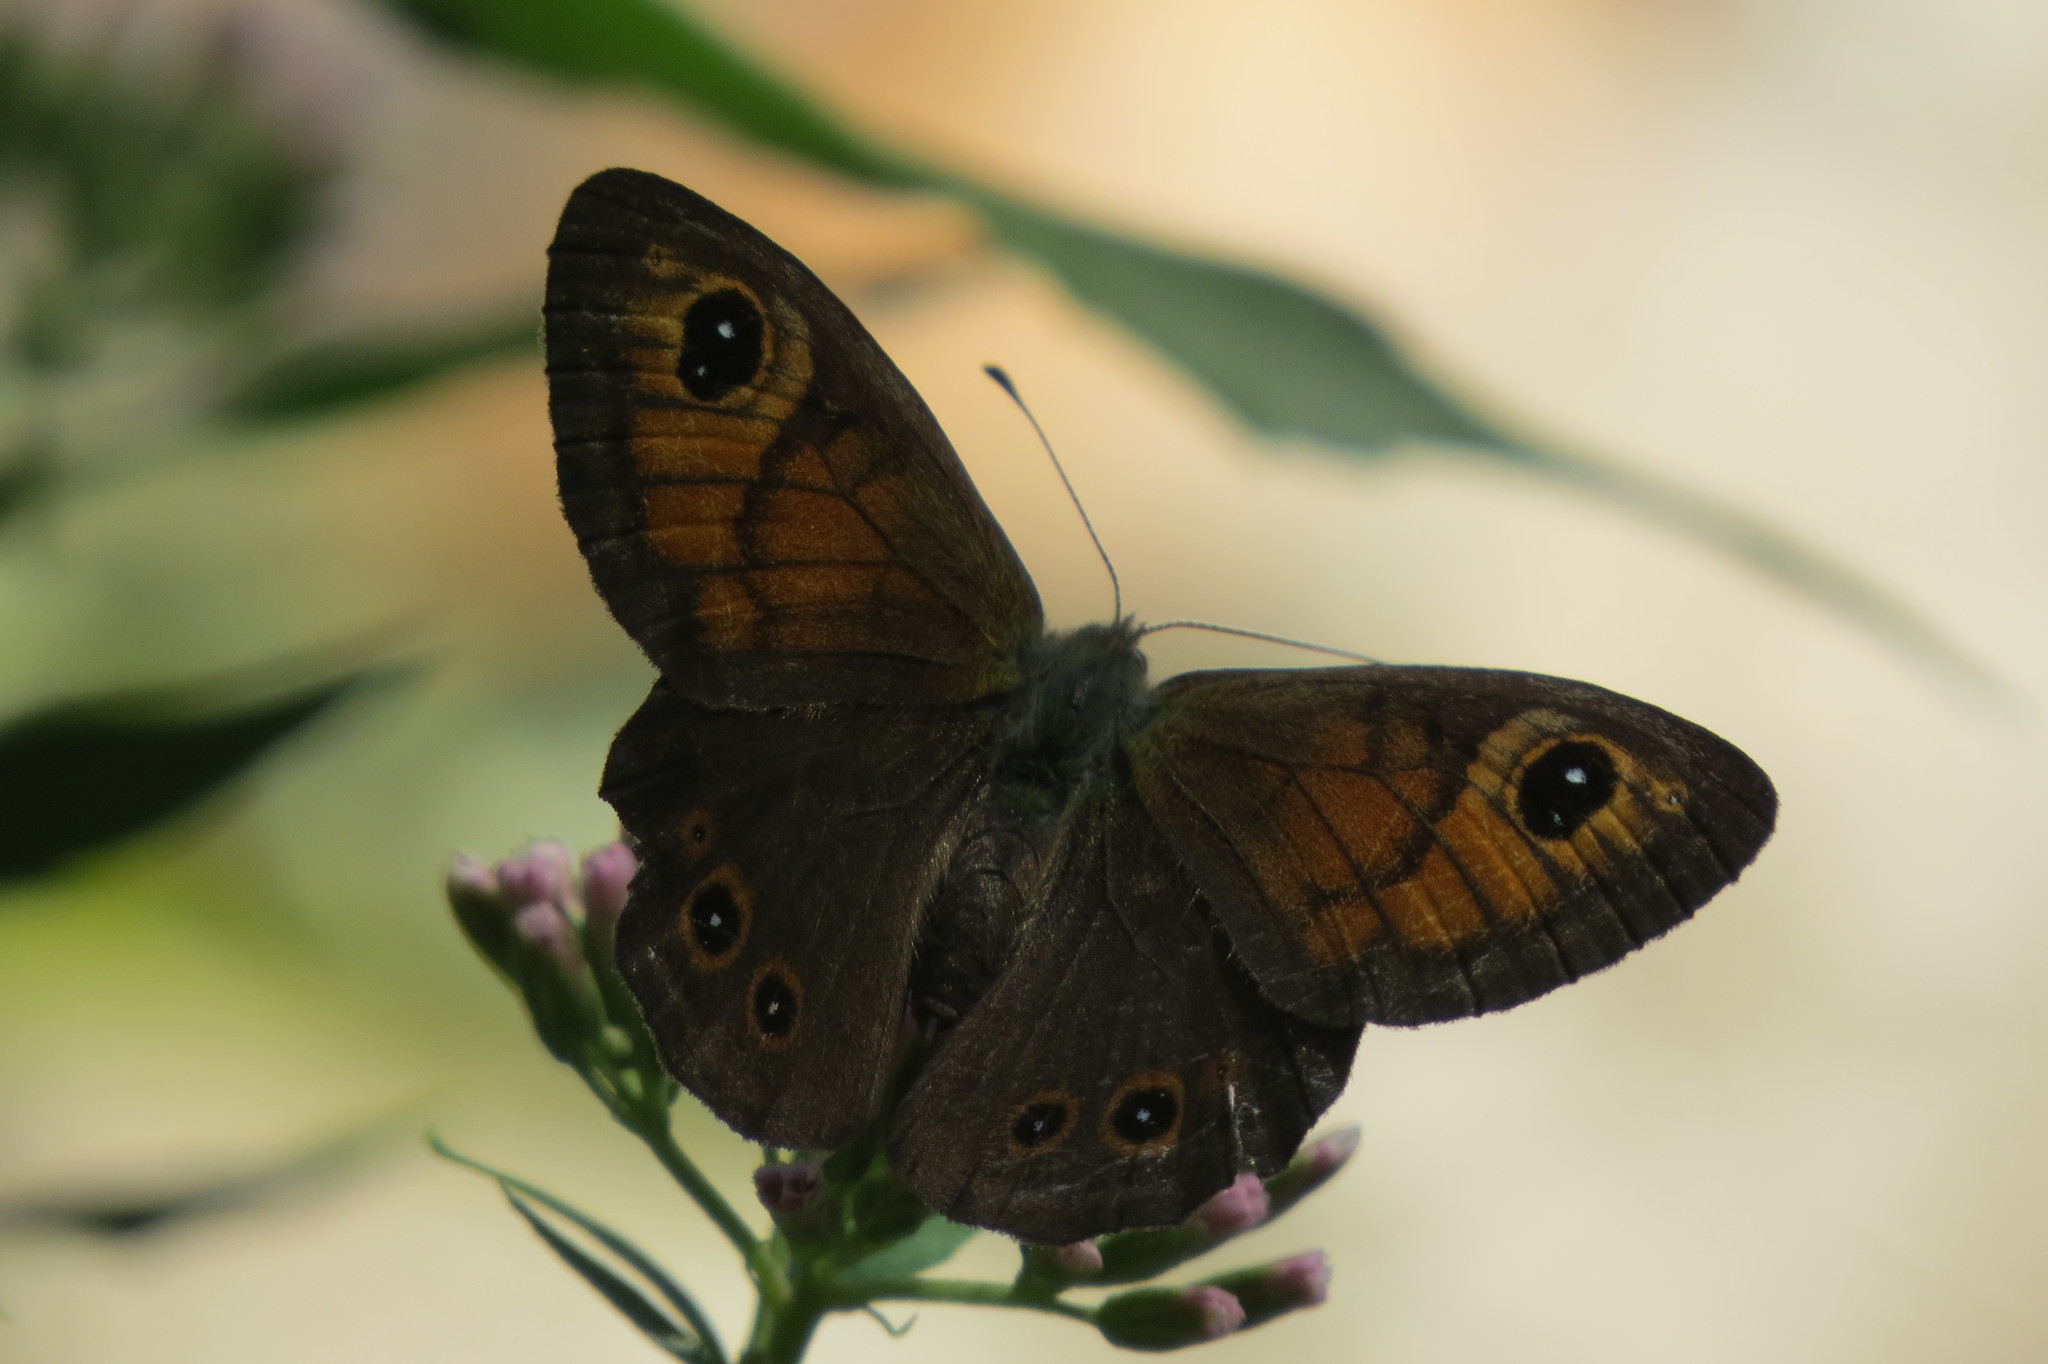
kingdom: Animalia
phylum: Arthropoda
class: Insecta
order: Lepidoptera
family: Nymphalidae
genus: Pararge
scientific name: Pararge Lasiommata maera
